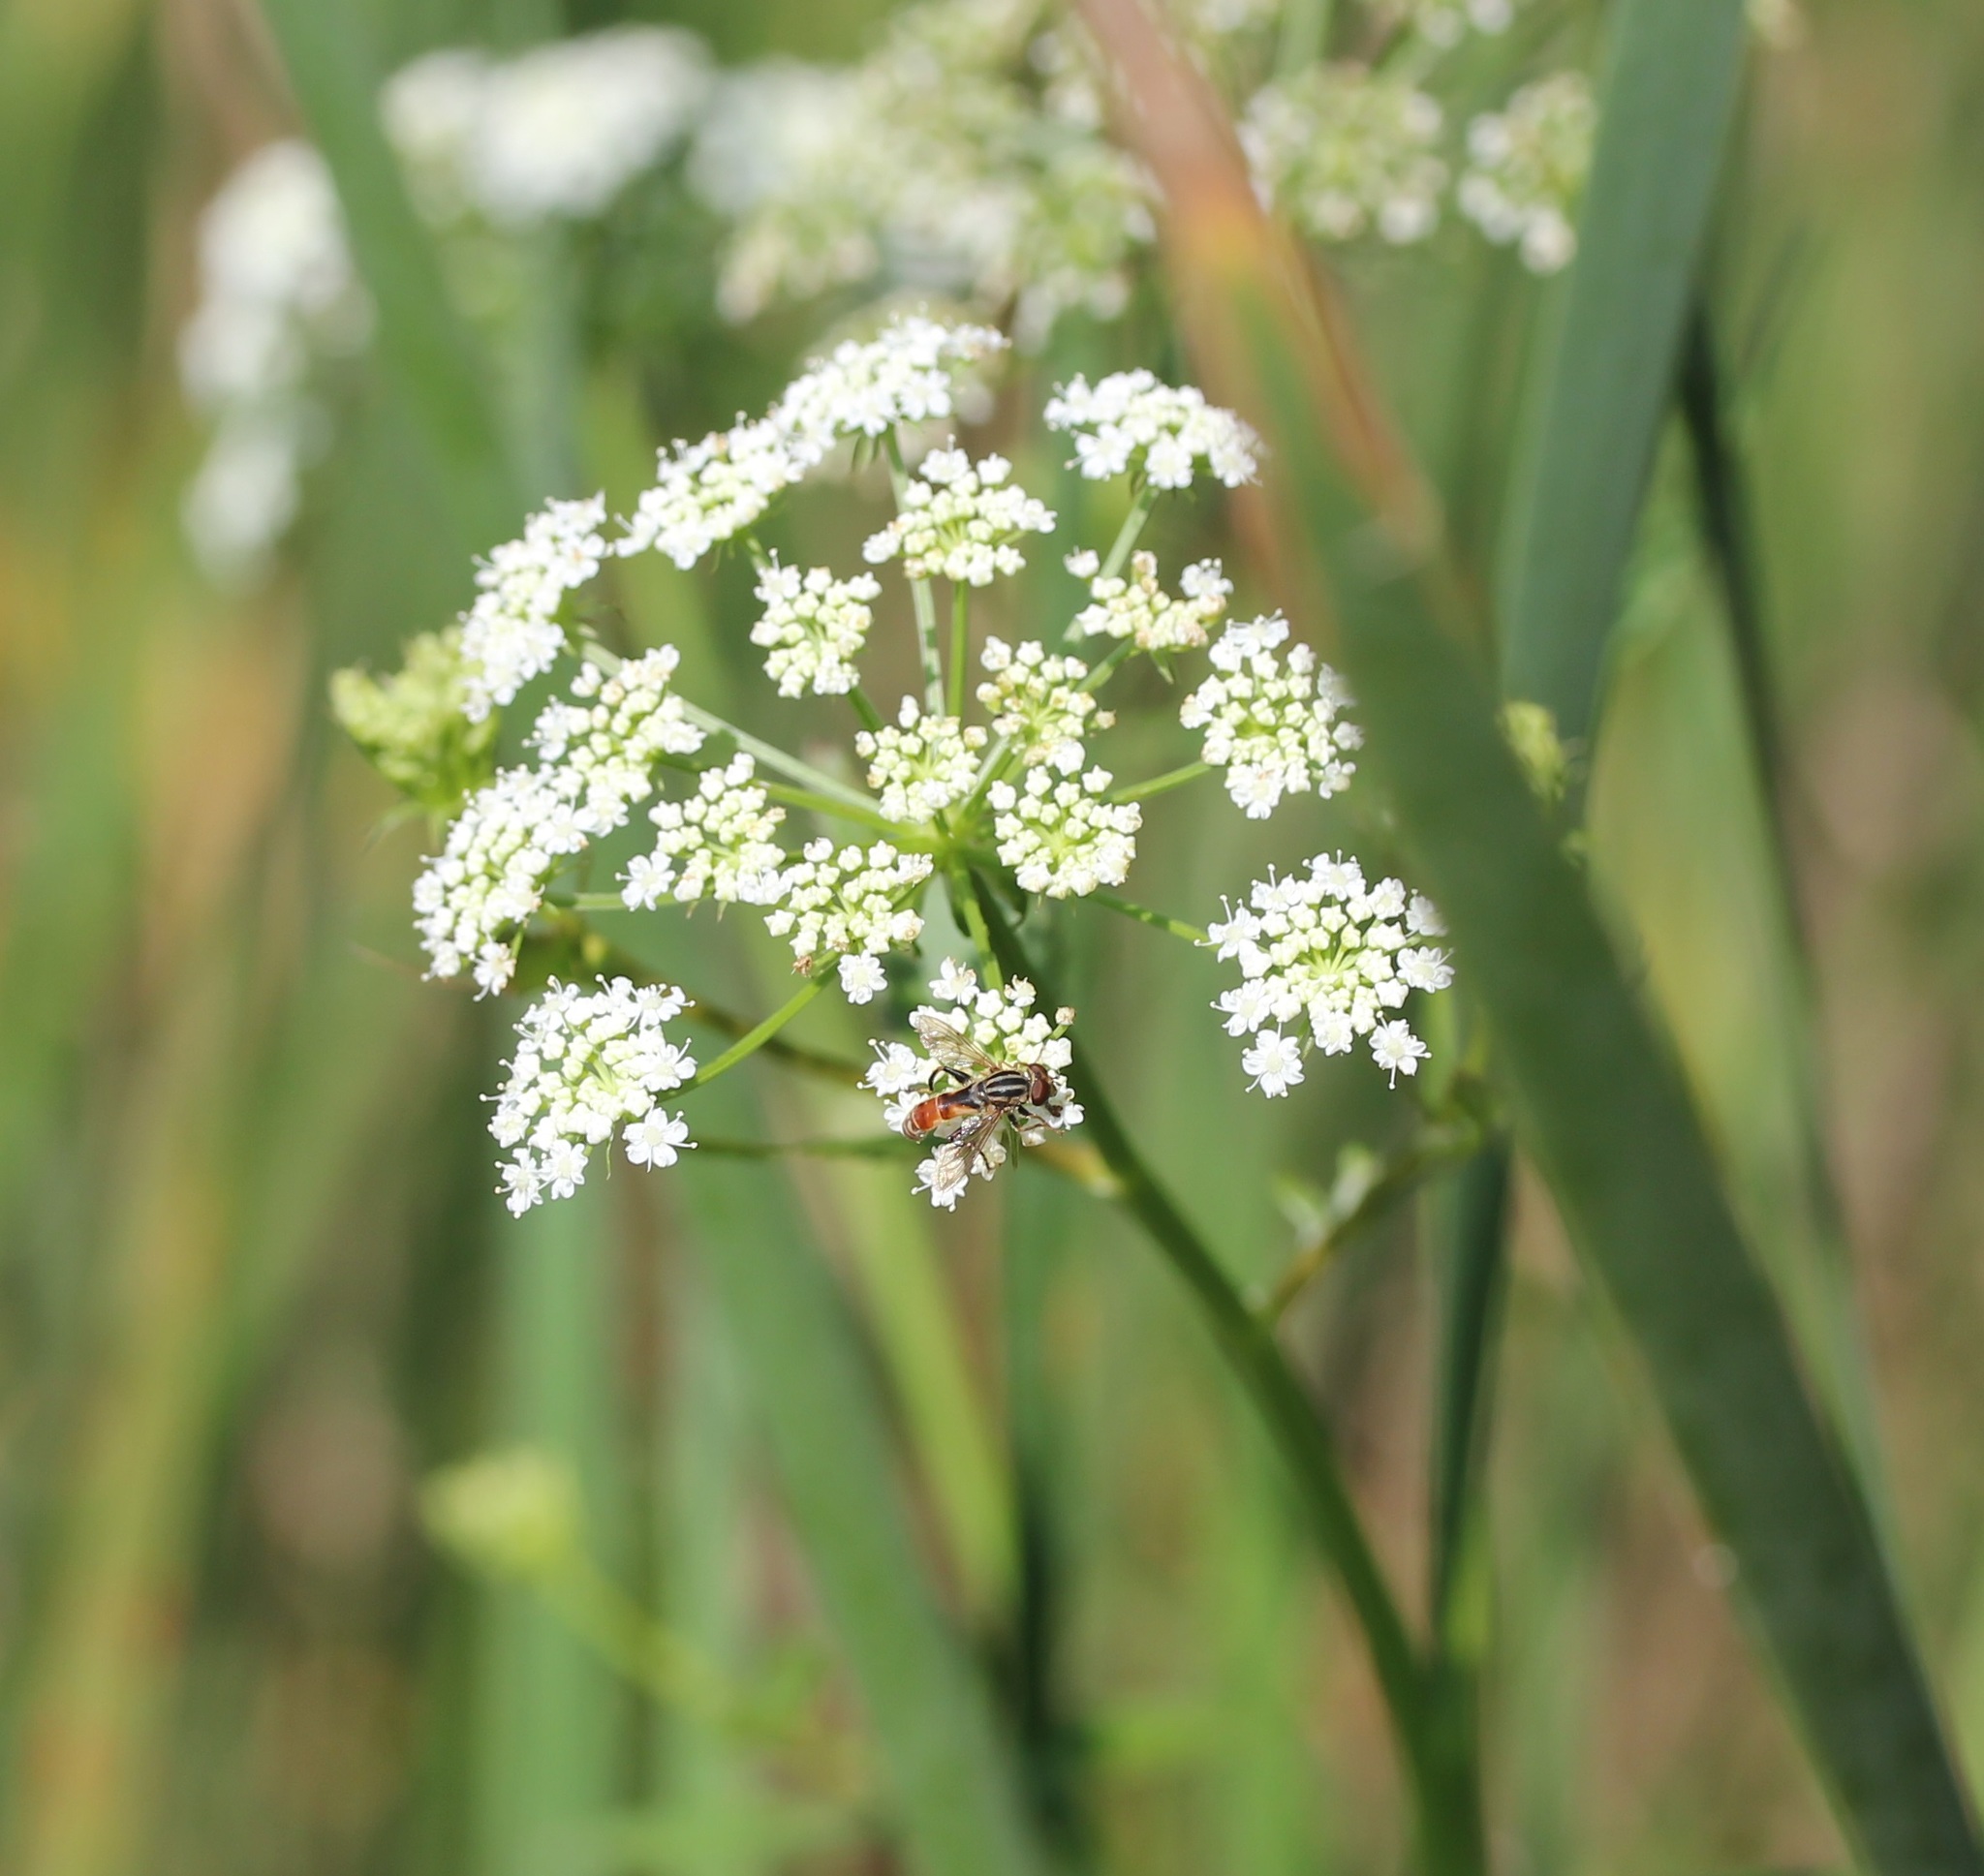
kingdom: Animalia
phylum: Arthropoda
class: Insecta
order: Diptera
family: Syrphidae
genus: Anasimyia
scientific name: Anasimyia distinctus
